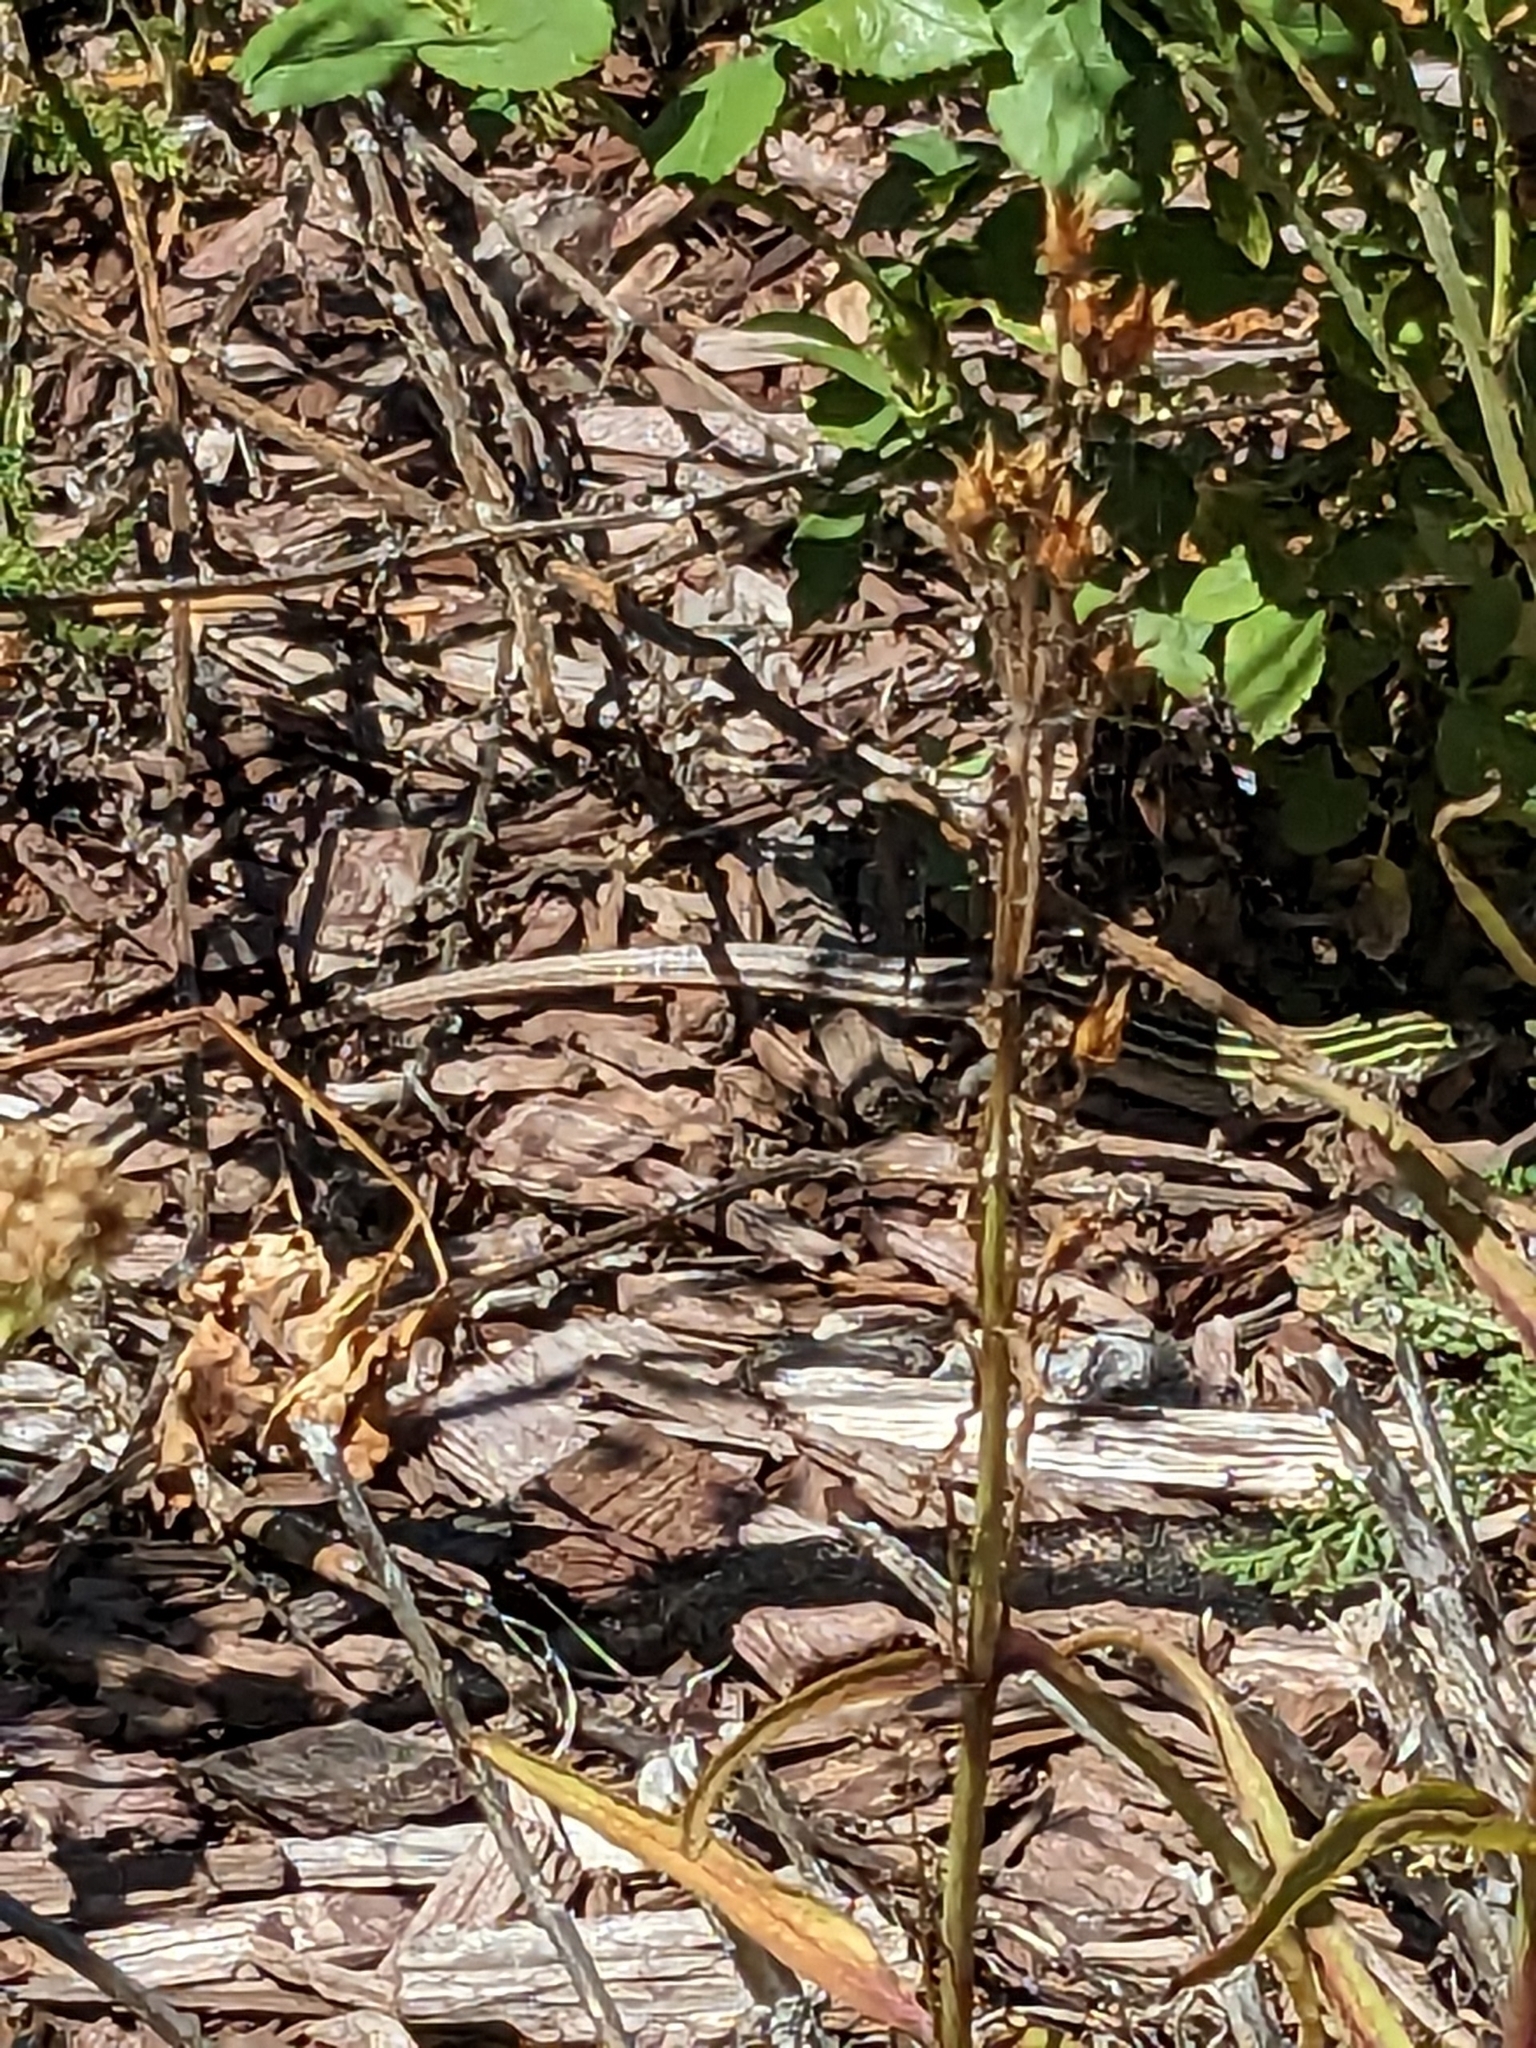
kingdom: Animalia
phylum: Chordata
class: Squamata
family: Teiidae
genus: Aspidoscelis
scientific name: Aspidoscelis sexlineatus
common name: Six-lined racerunner
